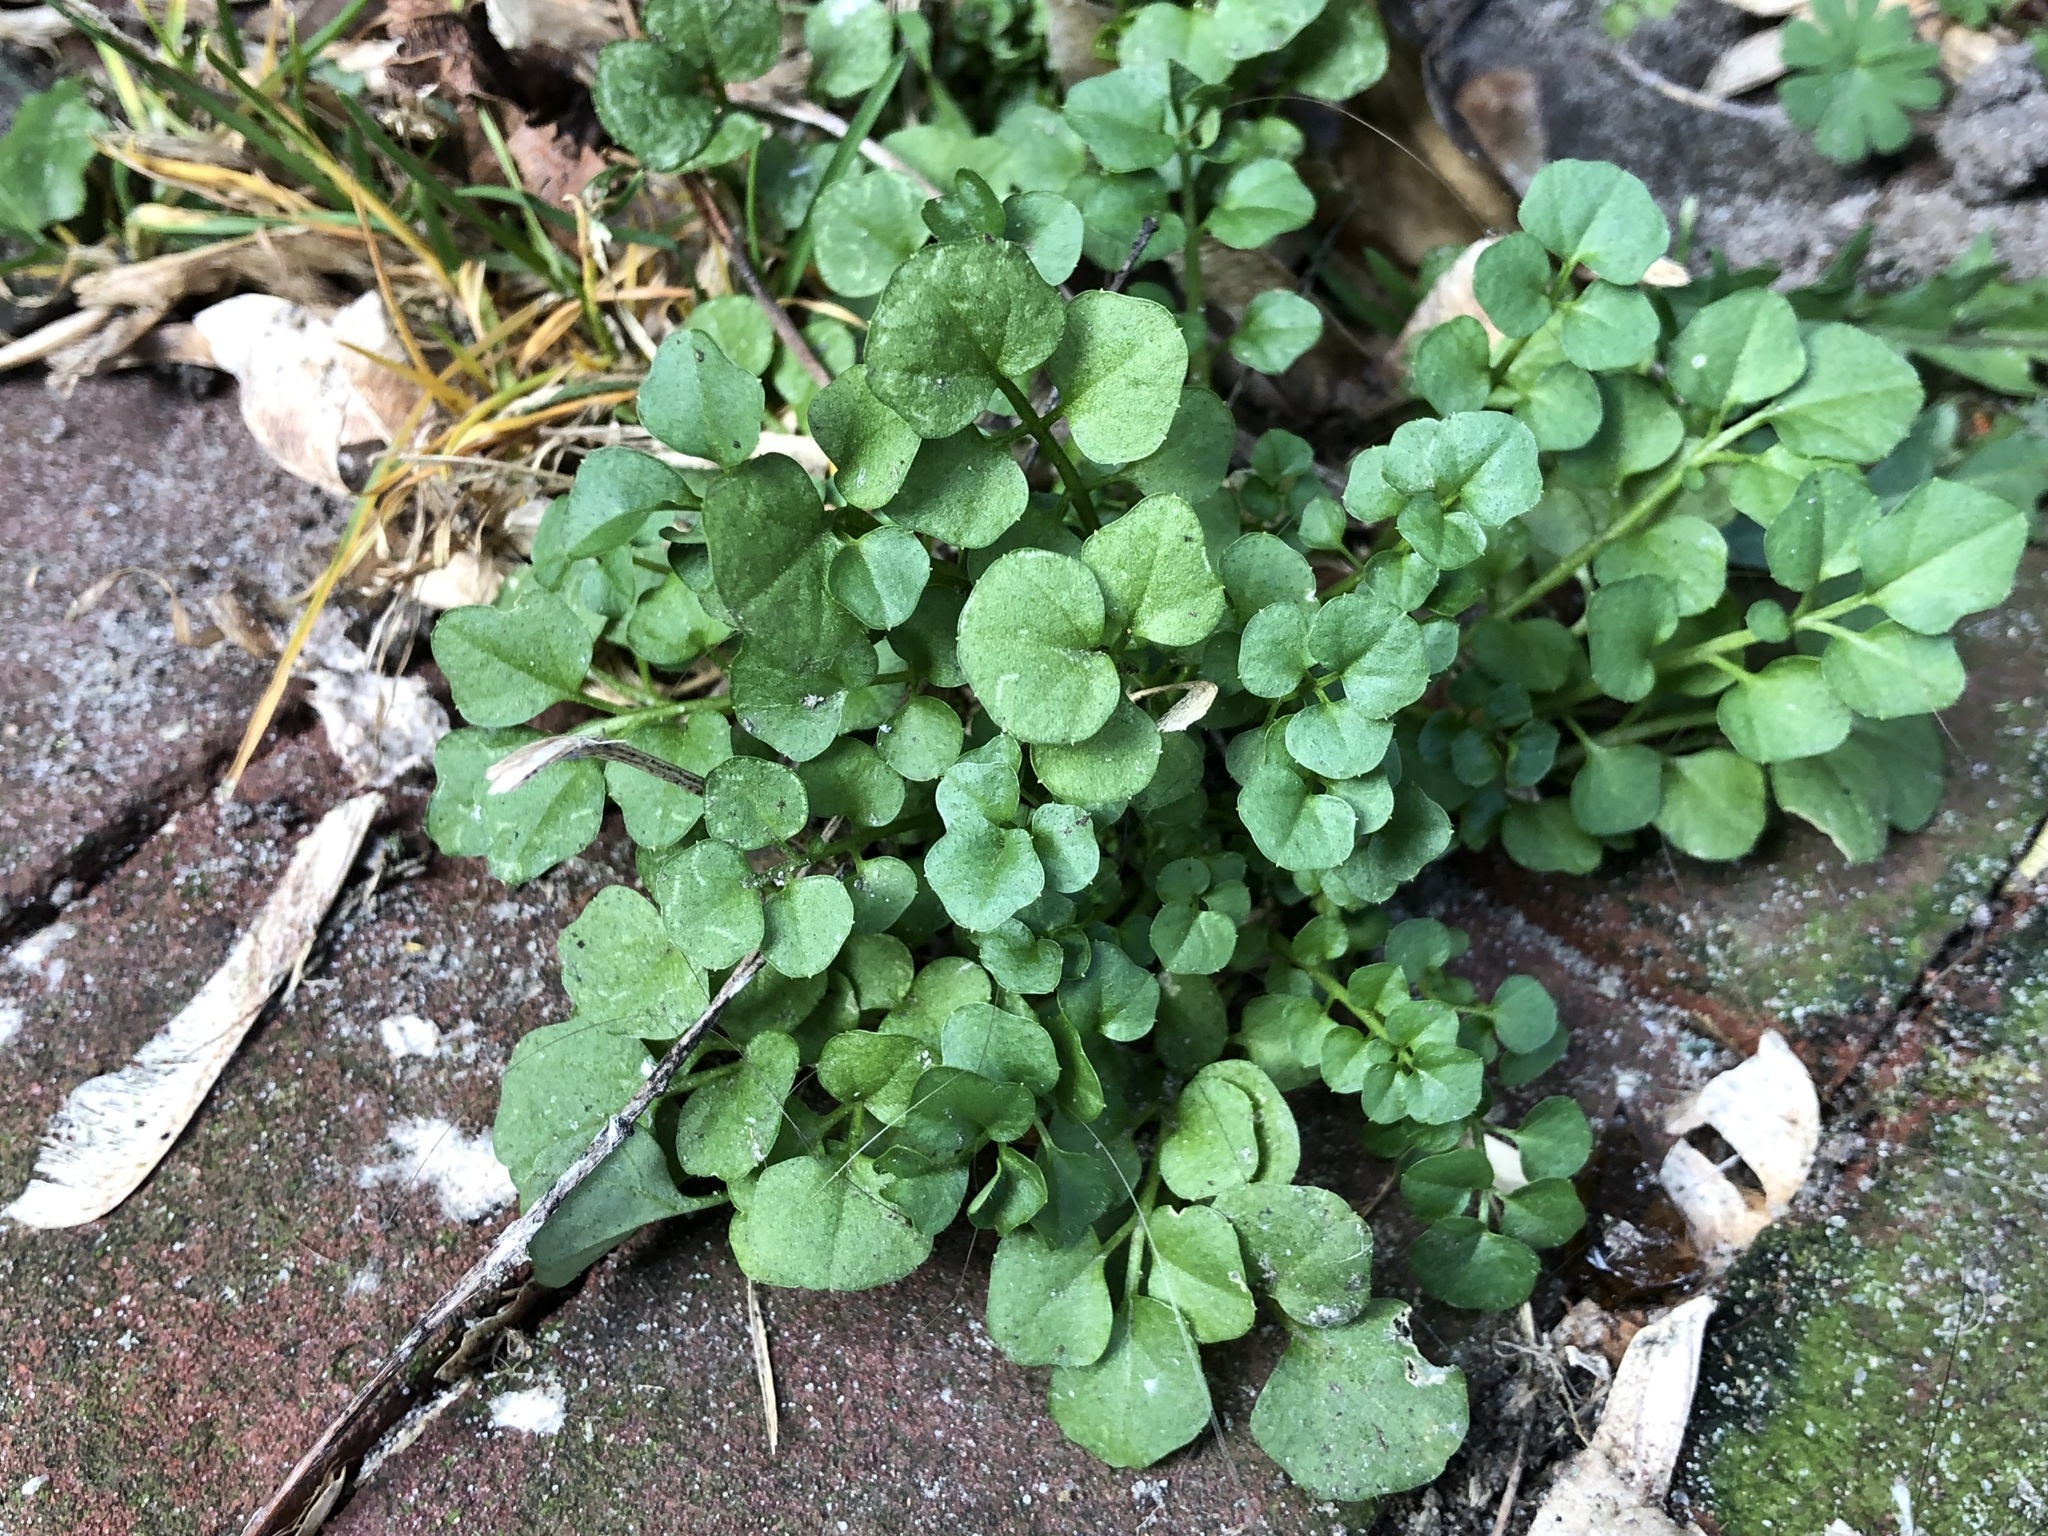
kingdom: Plantae
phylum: Tracheophyta
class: Magnoliopsida
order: Brassicales
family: Brassicaceae
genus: Cardamine
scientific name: Cardamine hirsuta
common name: Hairy bittercress
